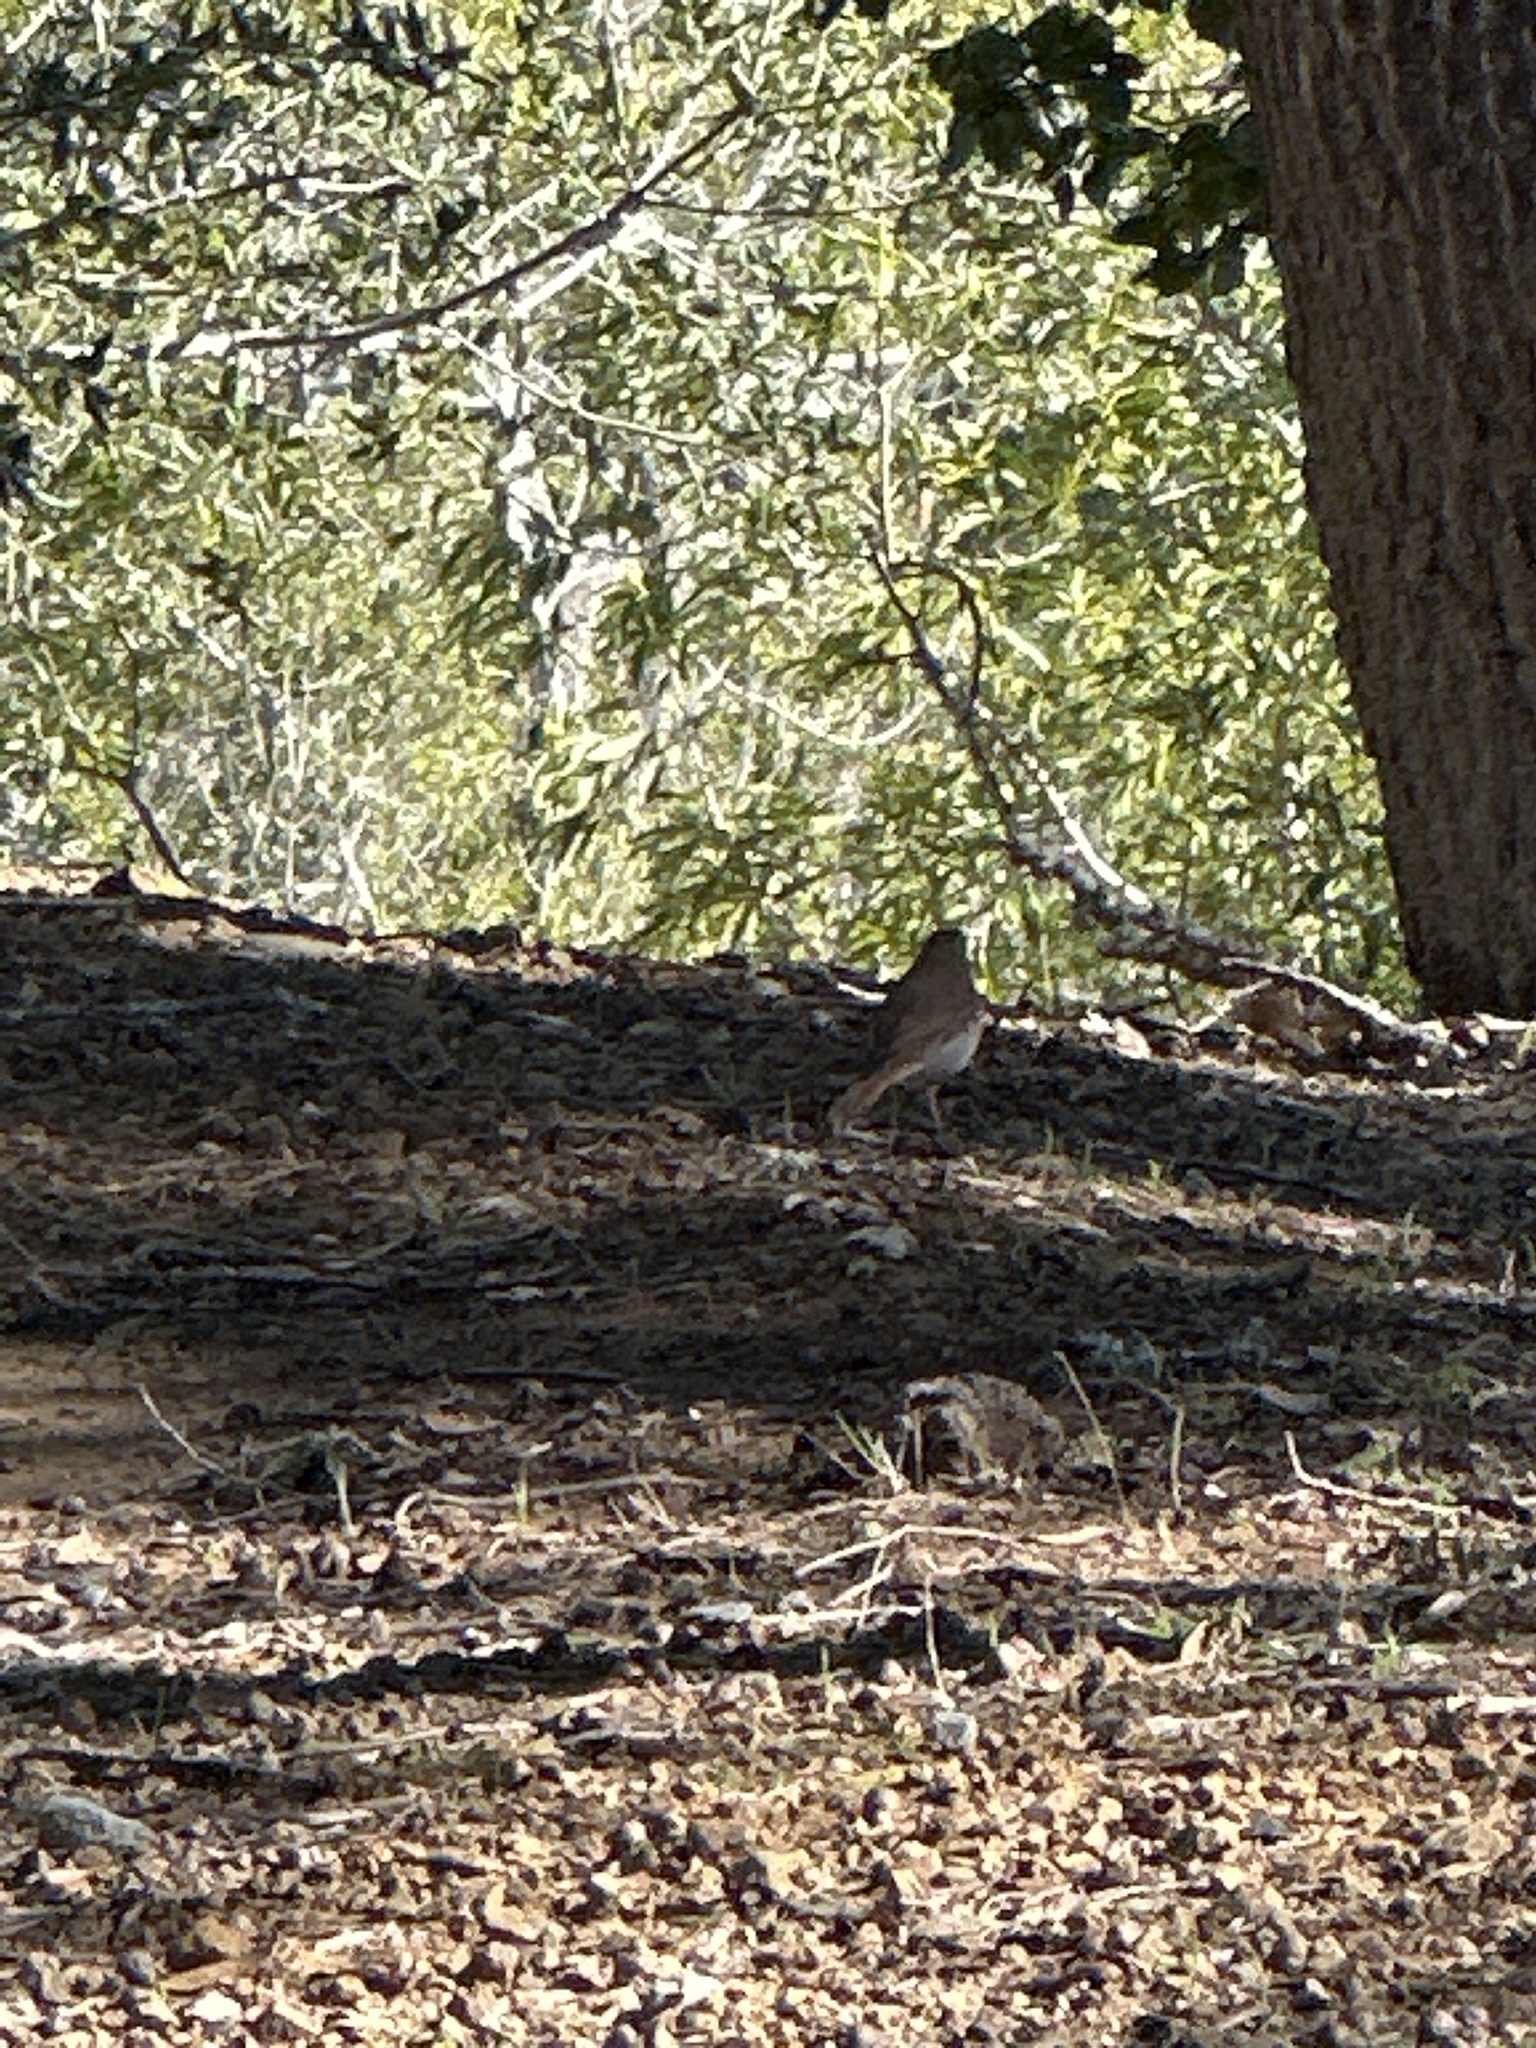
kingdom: Animalia
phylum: Chordata
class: Aves
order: Passeriformes
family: Turdidae
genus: Catharus
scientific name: Catharus guttatus
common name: Hermit thrush
